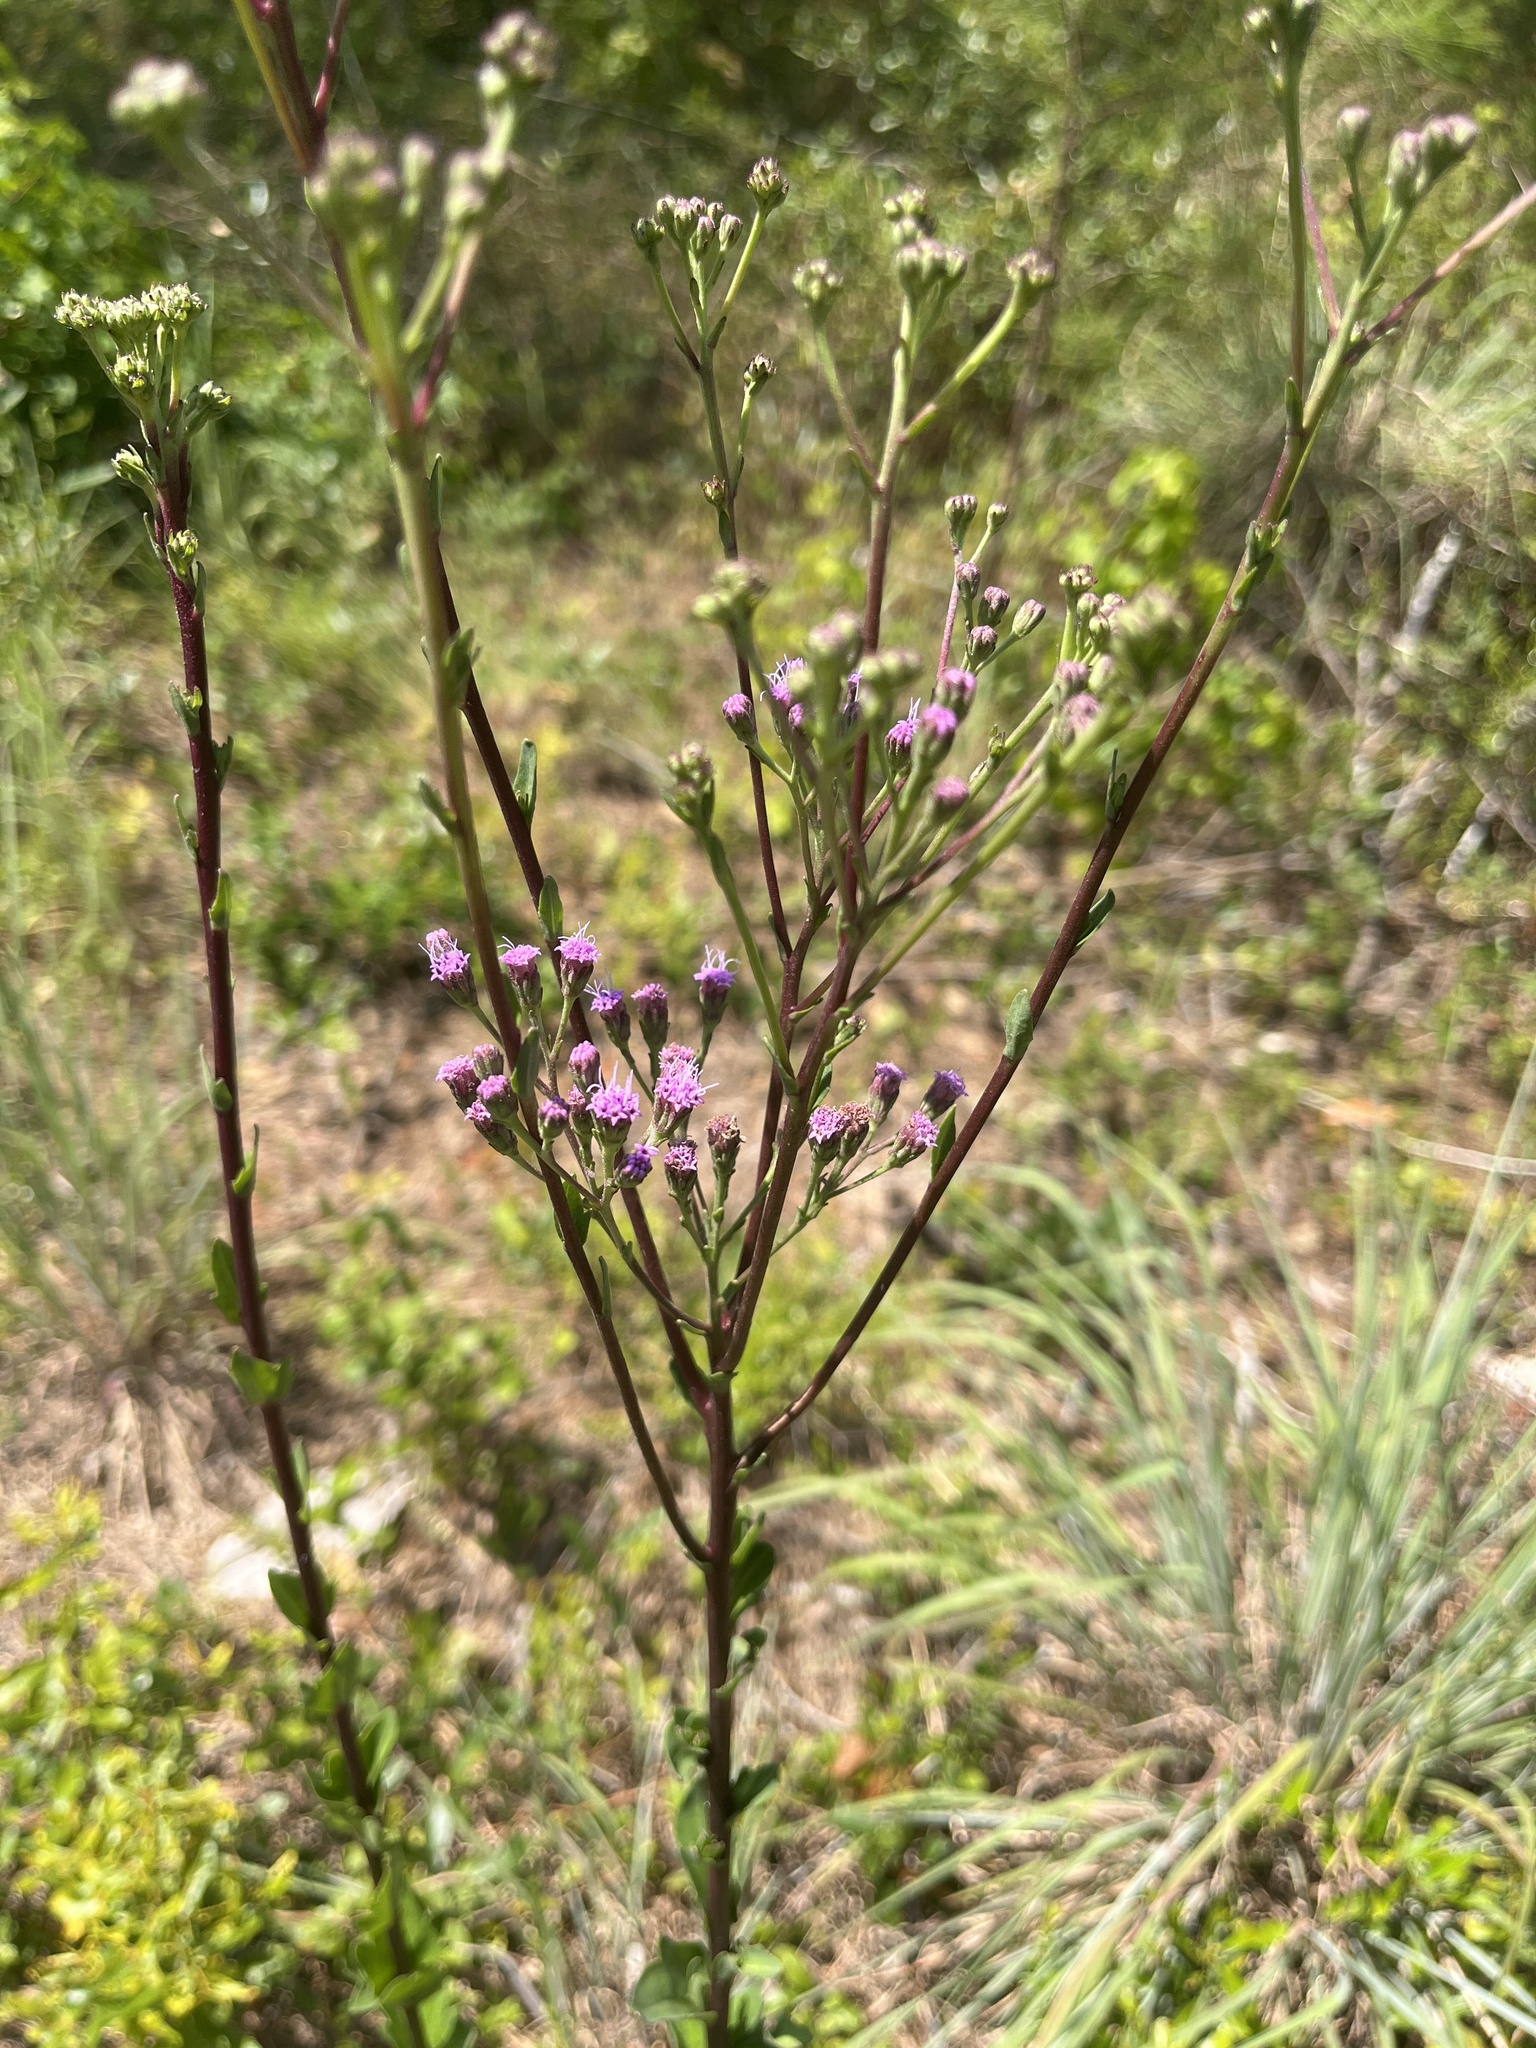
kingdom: Plantae
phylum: Tracheophyta
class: Magnoliopsida
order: Asterales
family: Asteraceae
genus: Carphephorus
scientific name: Carphephorus odoratissimus
